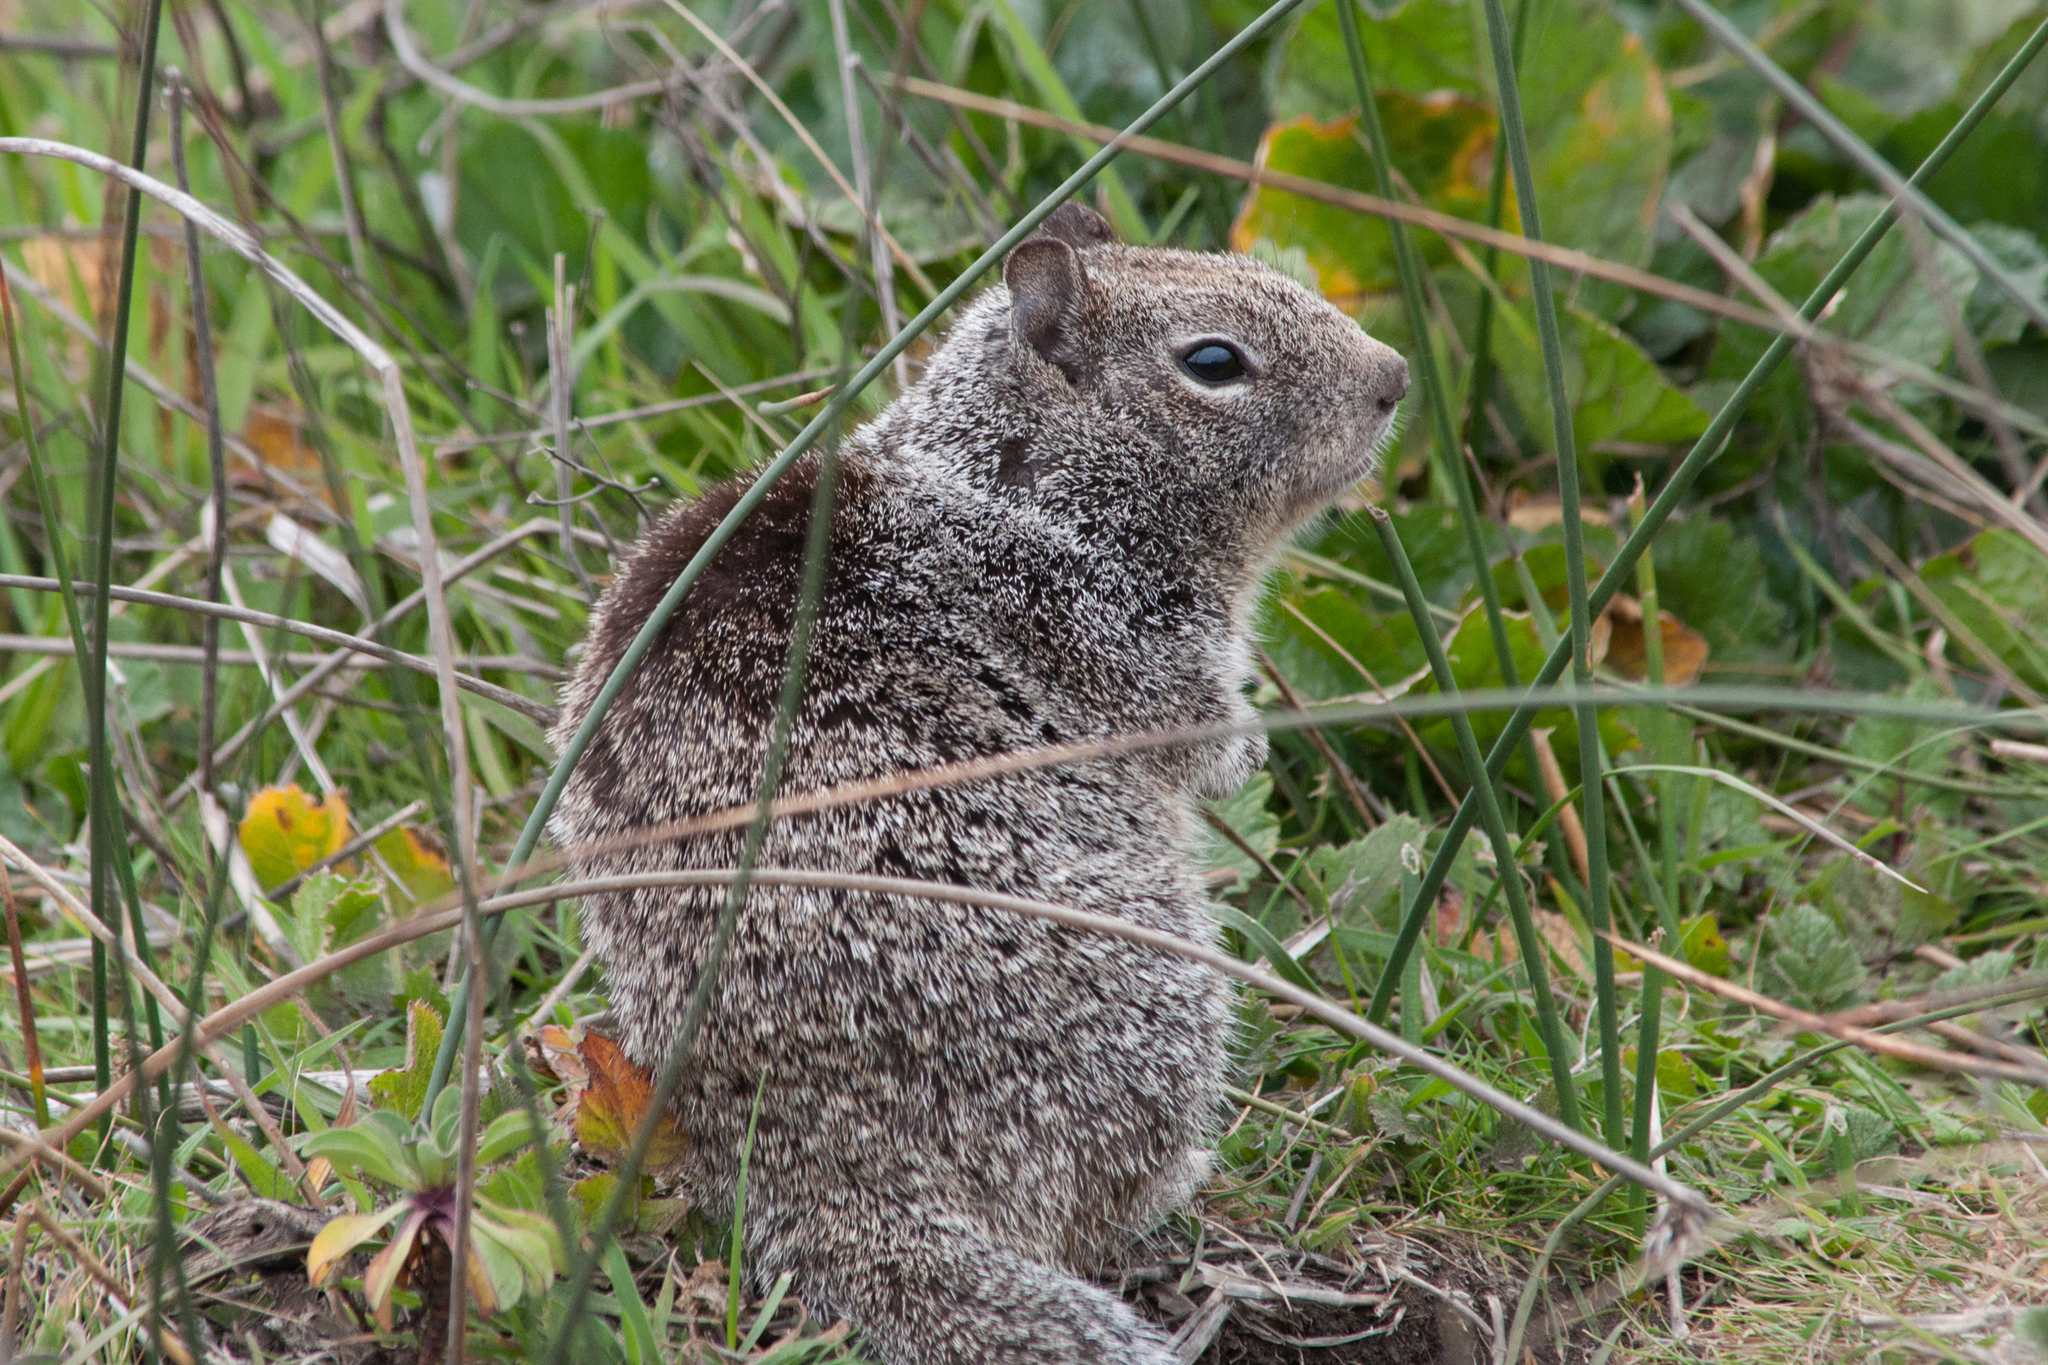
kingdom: Animalia
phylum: Chordata
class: Mammalia
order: Rodentia
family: Sciuridae
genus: Otospermophilus
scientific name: Otospermophilus beecheyi
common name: California ground squirrel
